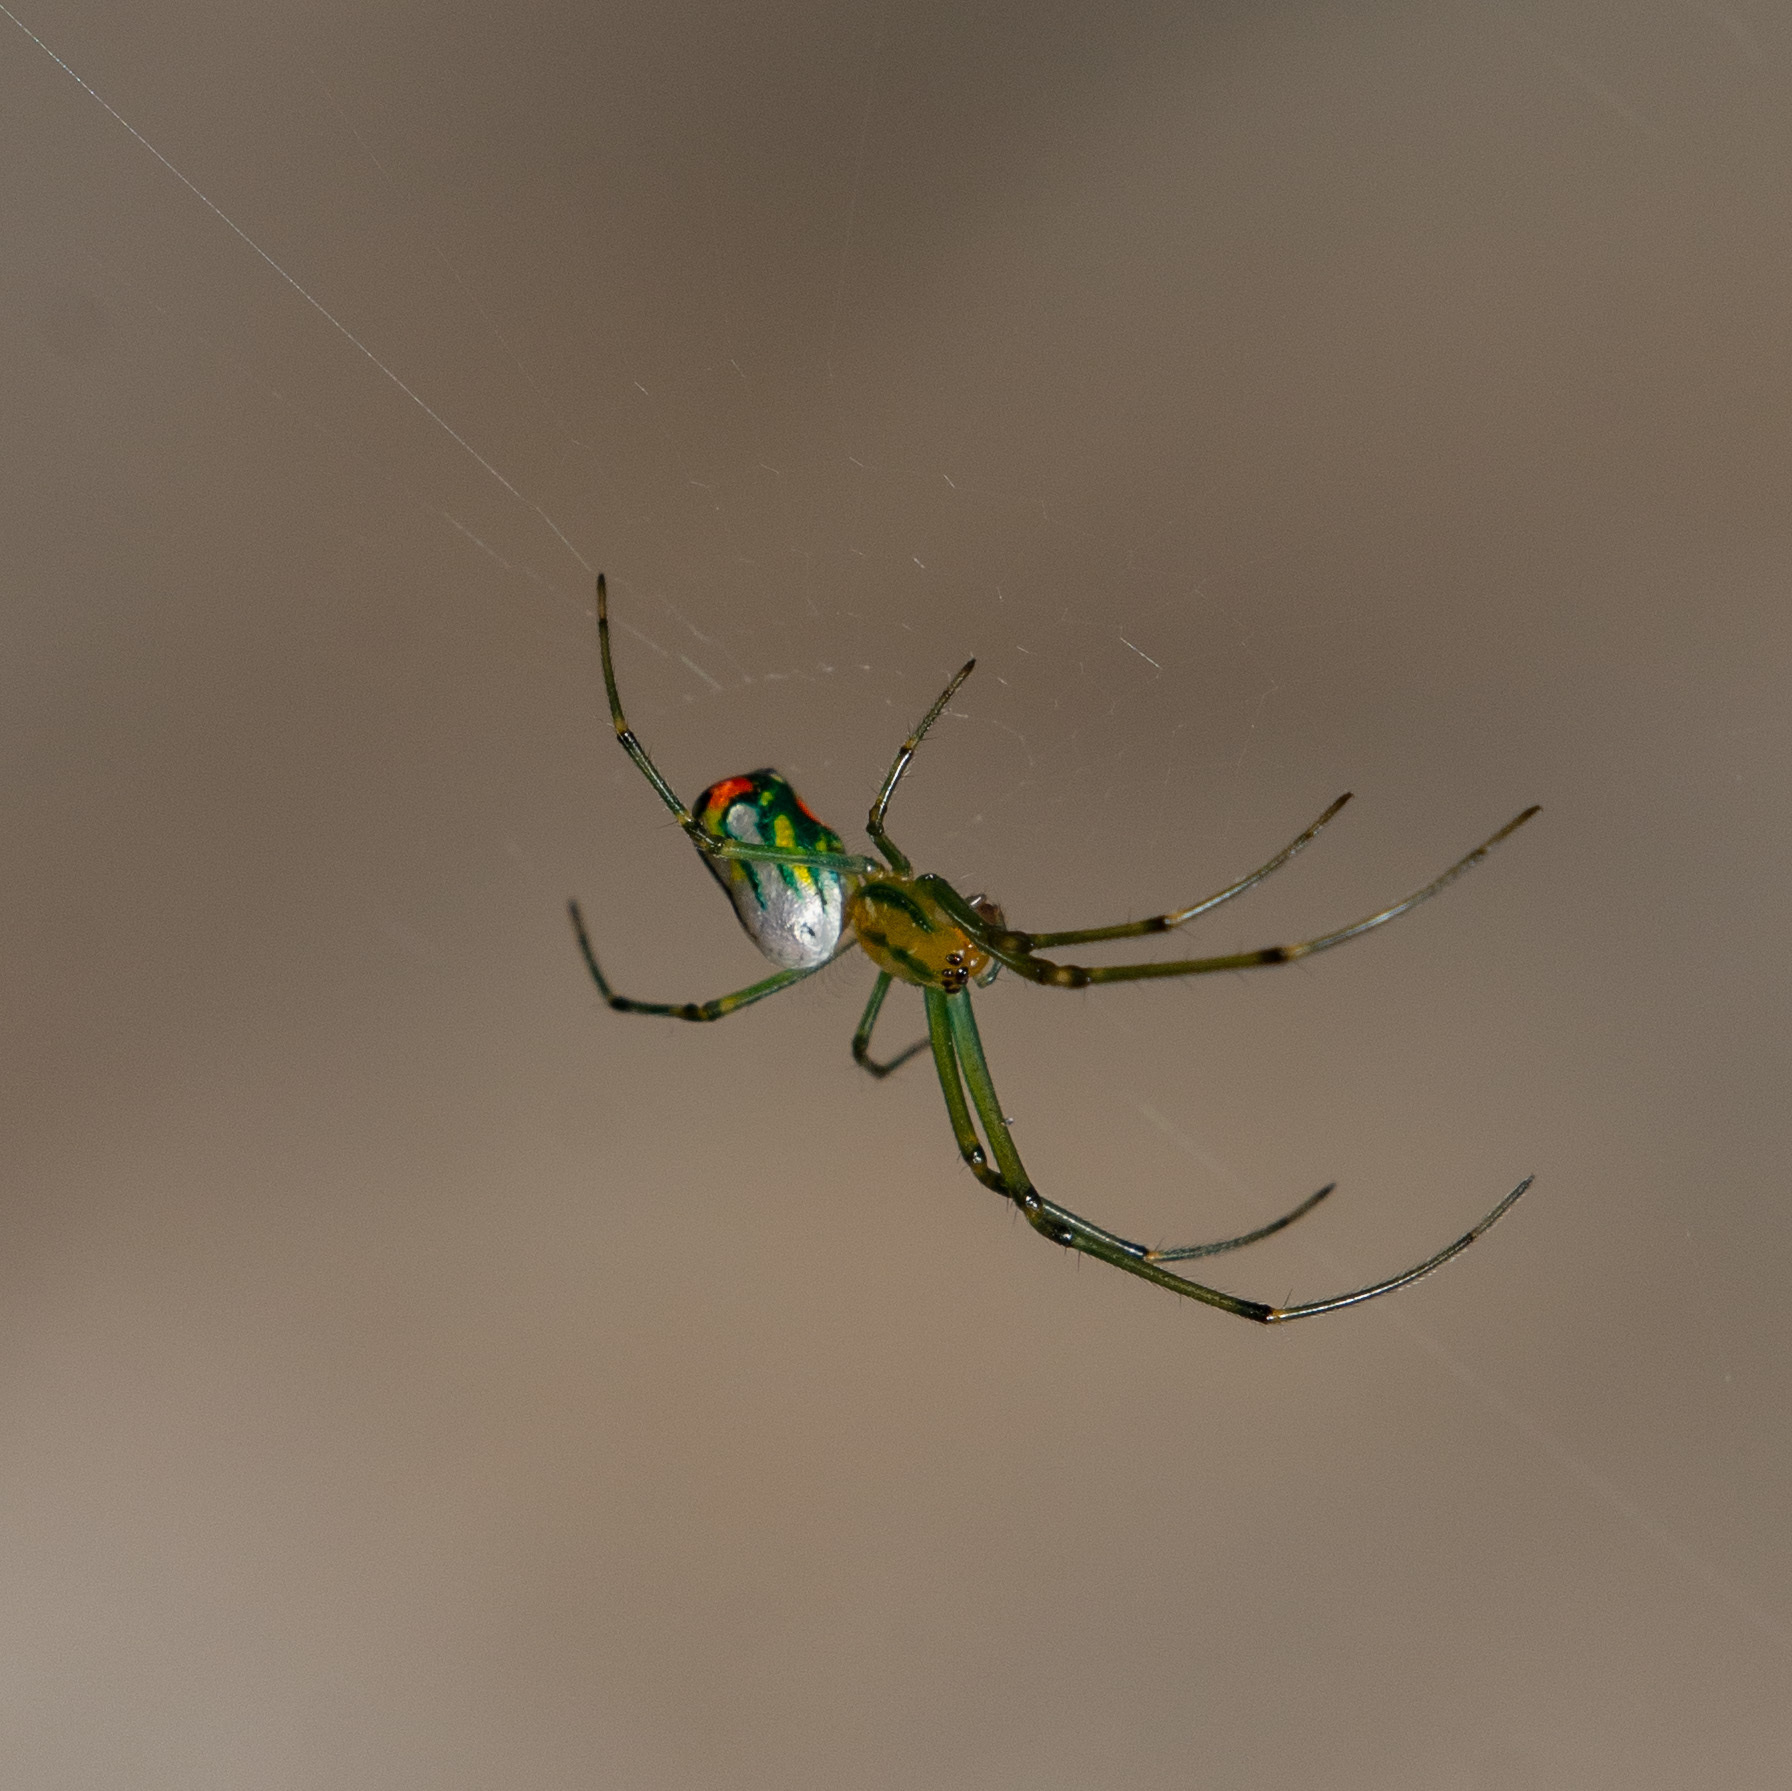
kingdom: Animalia
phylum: Arthropoda
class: Arachnida
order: Araneae
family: Tetragnathidae
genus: Leucauge
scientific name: Leucauge argyrobapta
